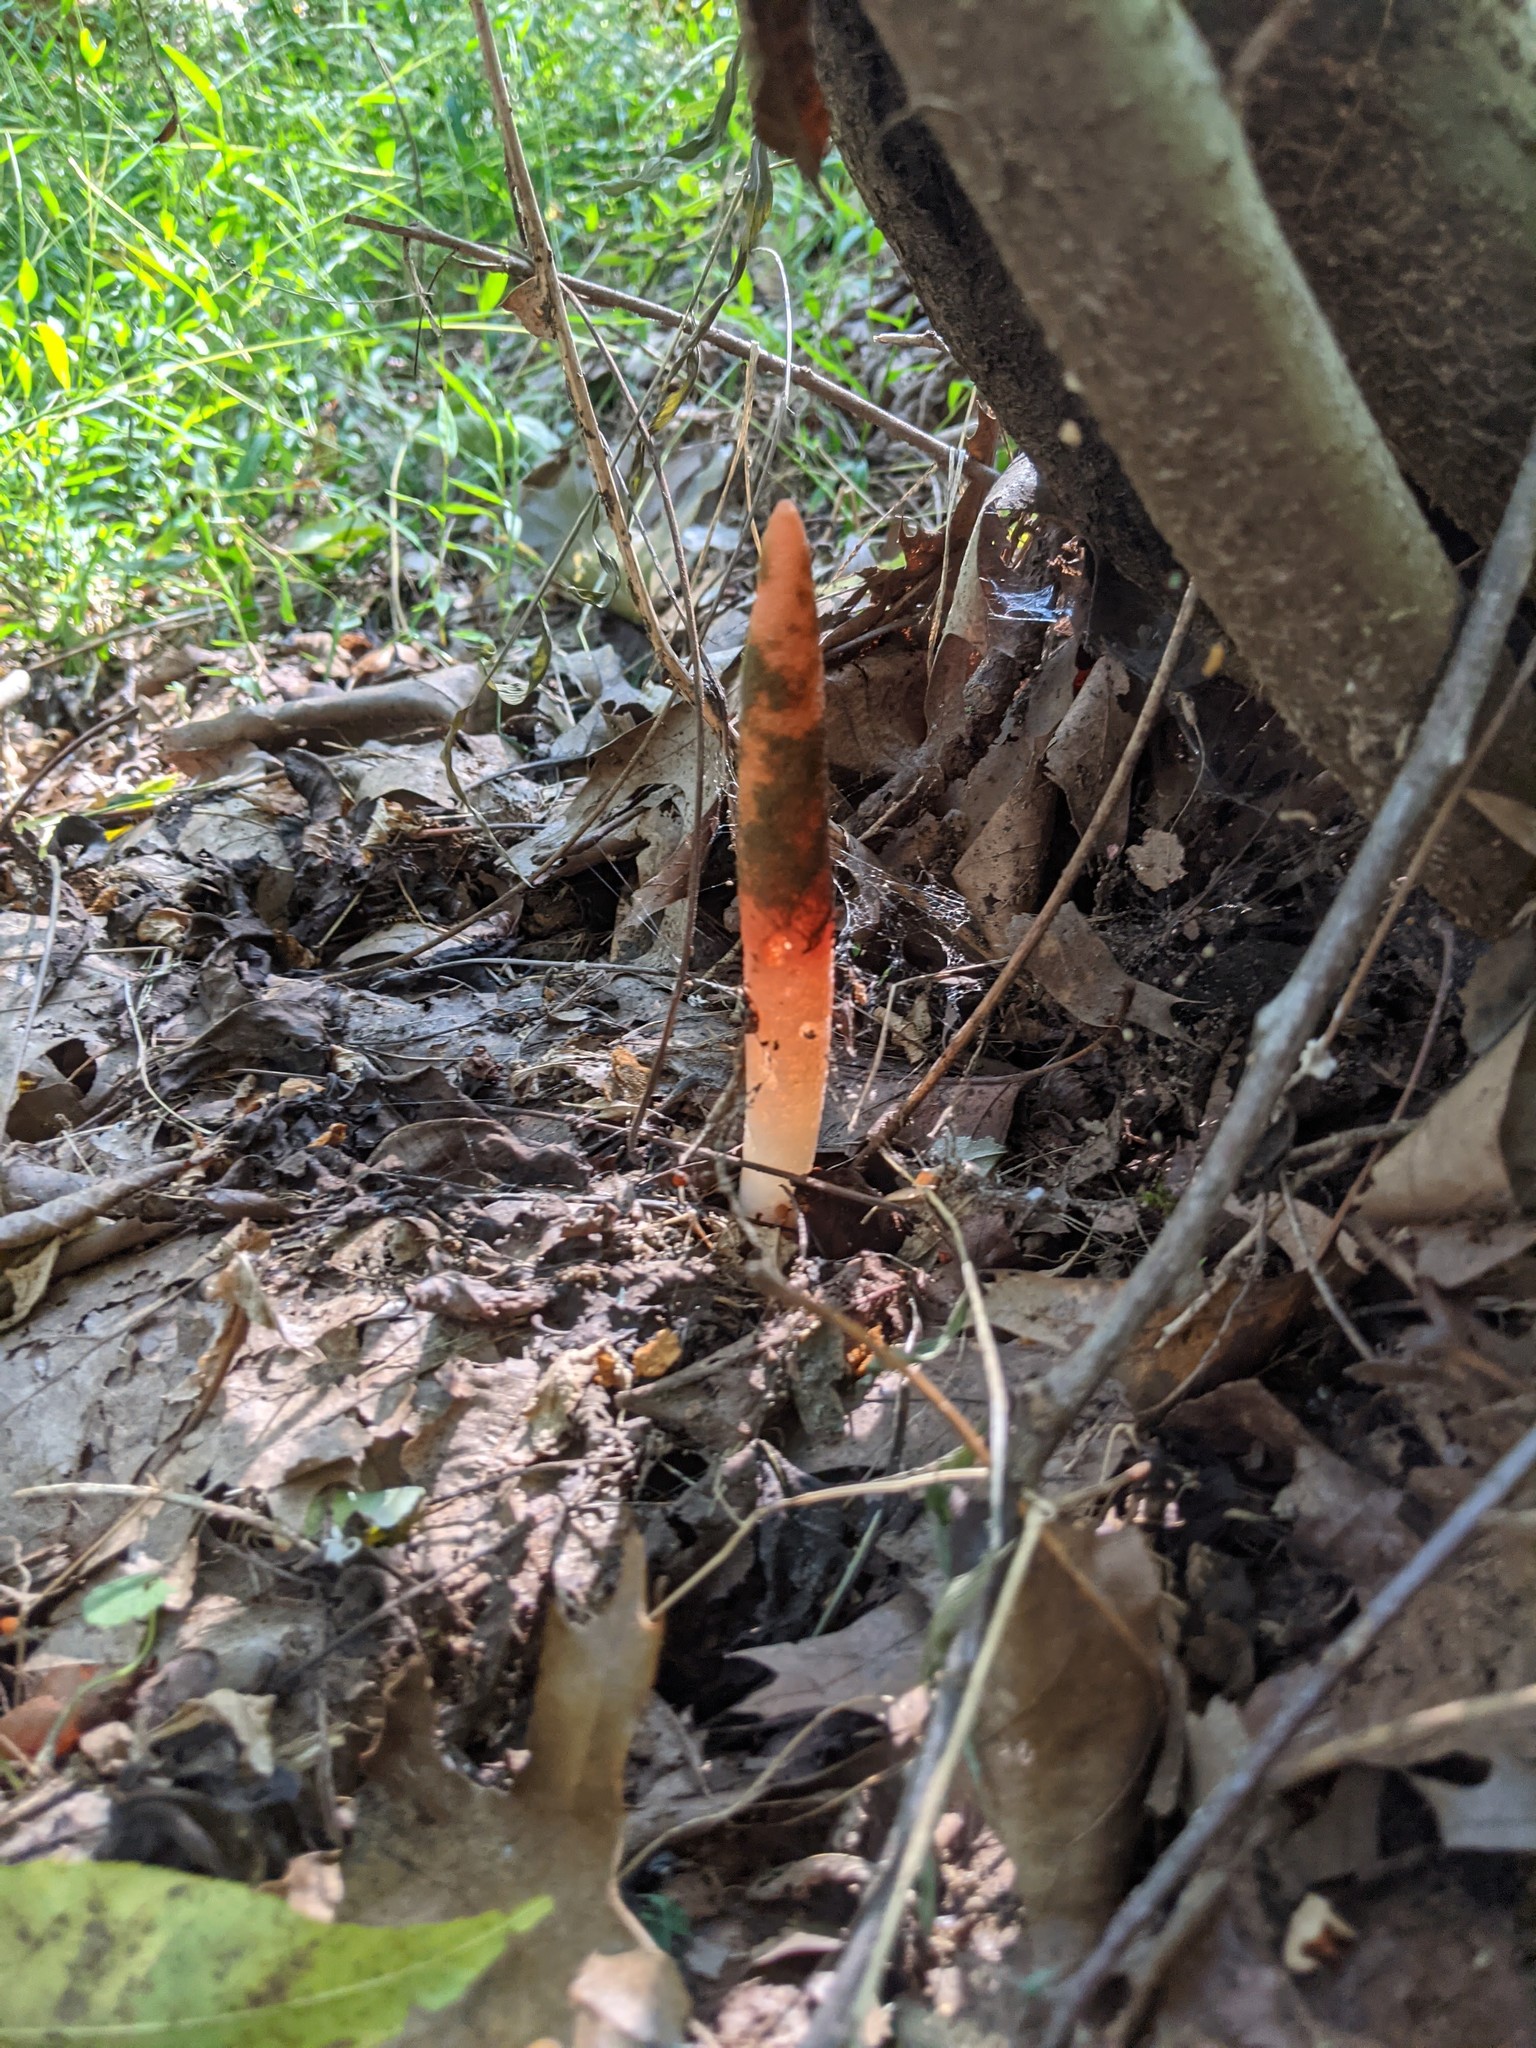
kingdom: Fungi
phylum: Basidiomycota
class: Agaricomycetes
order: Phallales
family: Phallaceae
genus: Mutinus
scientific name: Mutinus elegans
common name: Devil's dipstick
